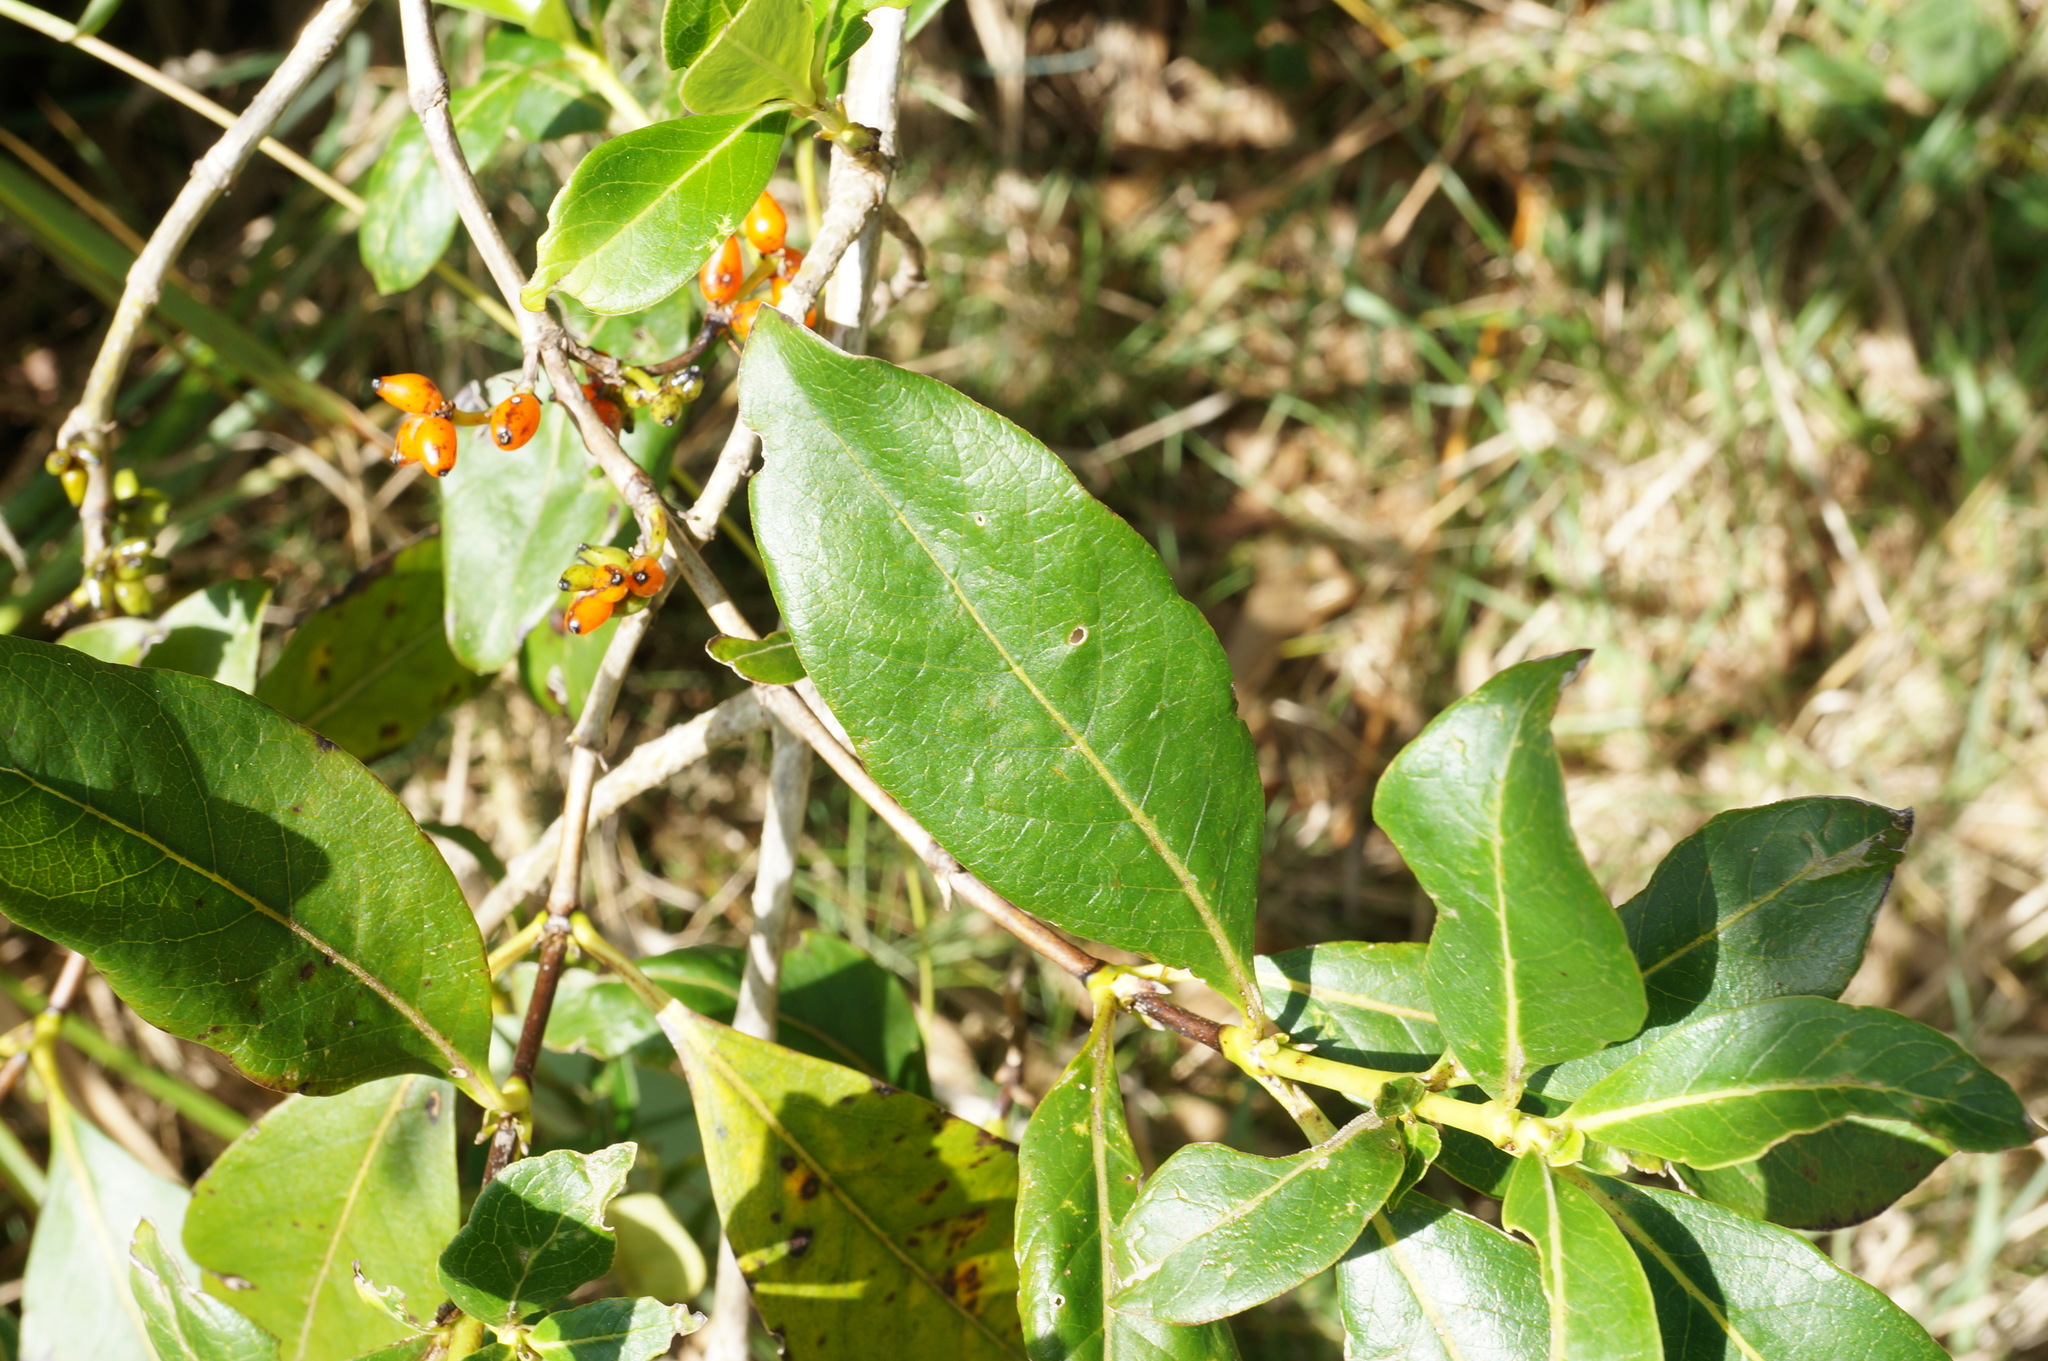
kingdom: Plantae
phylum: Tracheophyta
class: Magnoliopsida
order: Gentianales
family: Rubiaceae
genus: Coprosma
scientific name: Coprosma robusta
